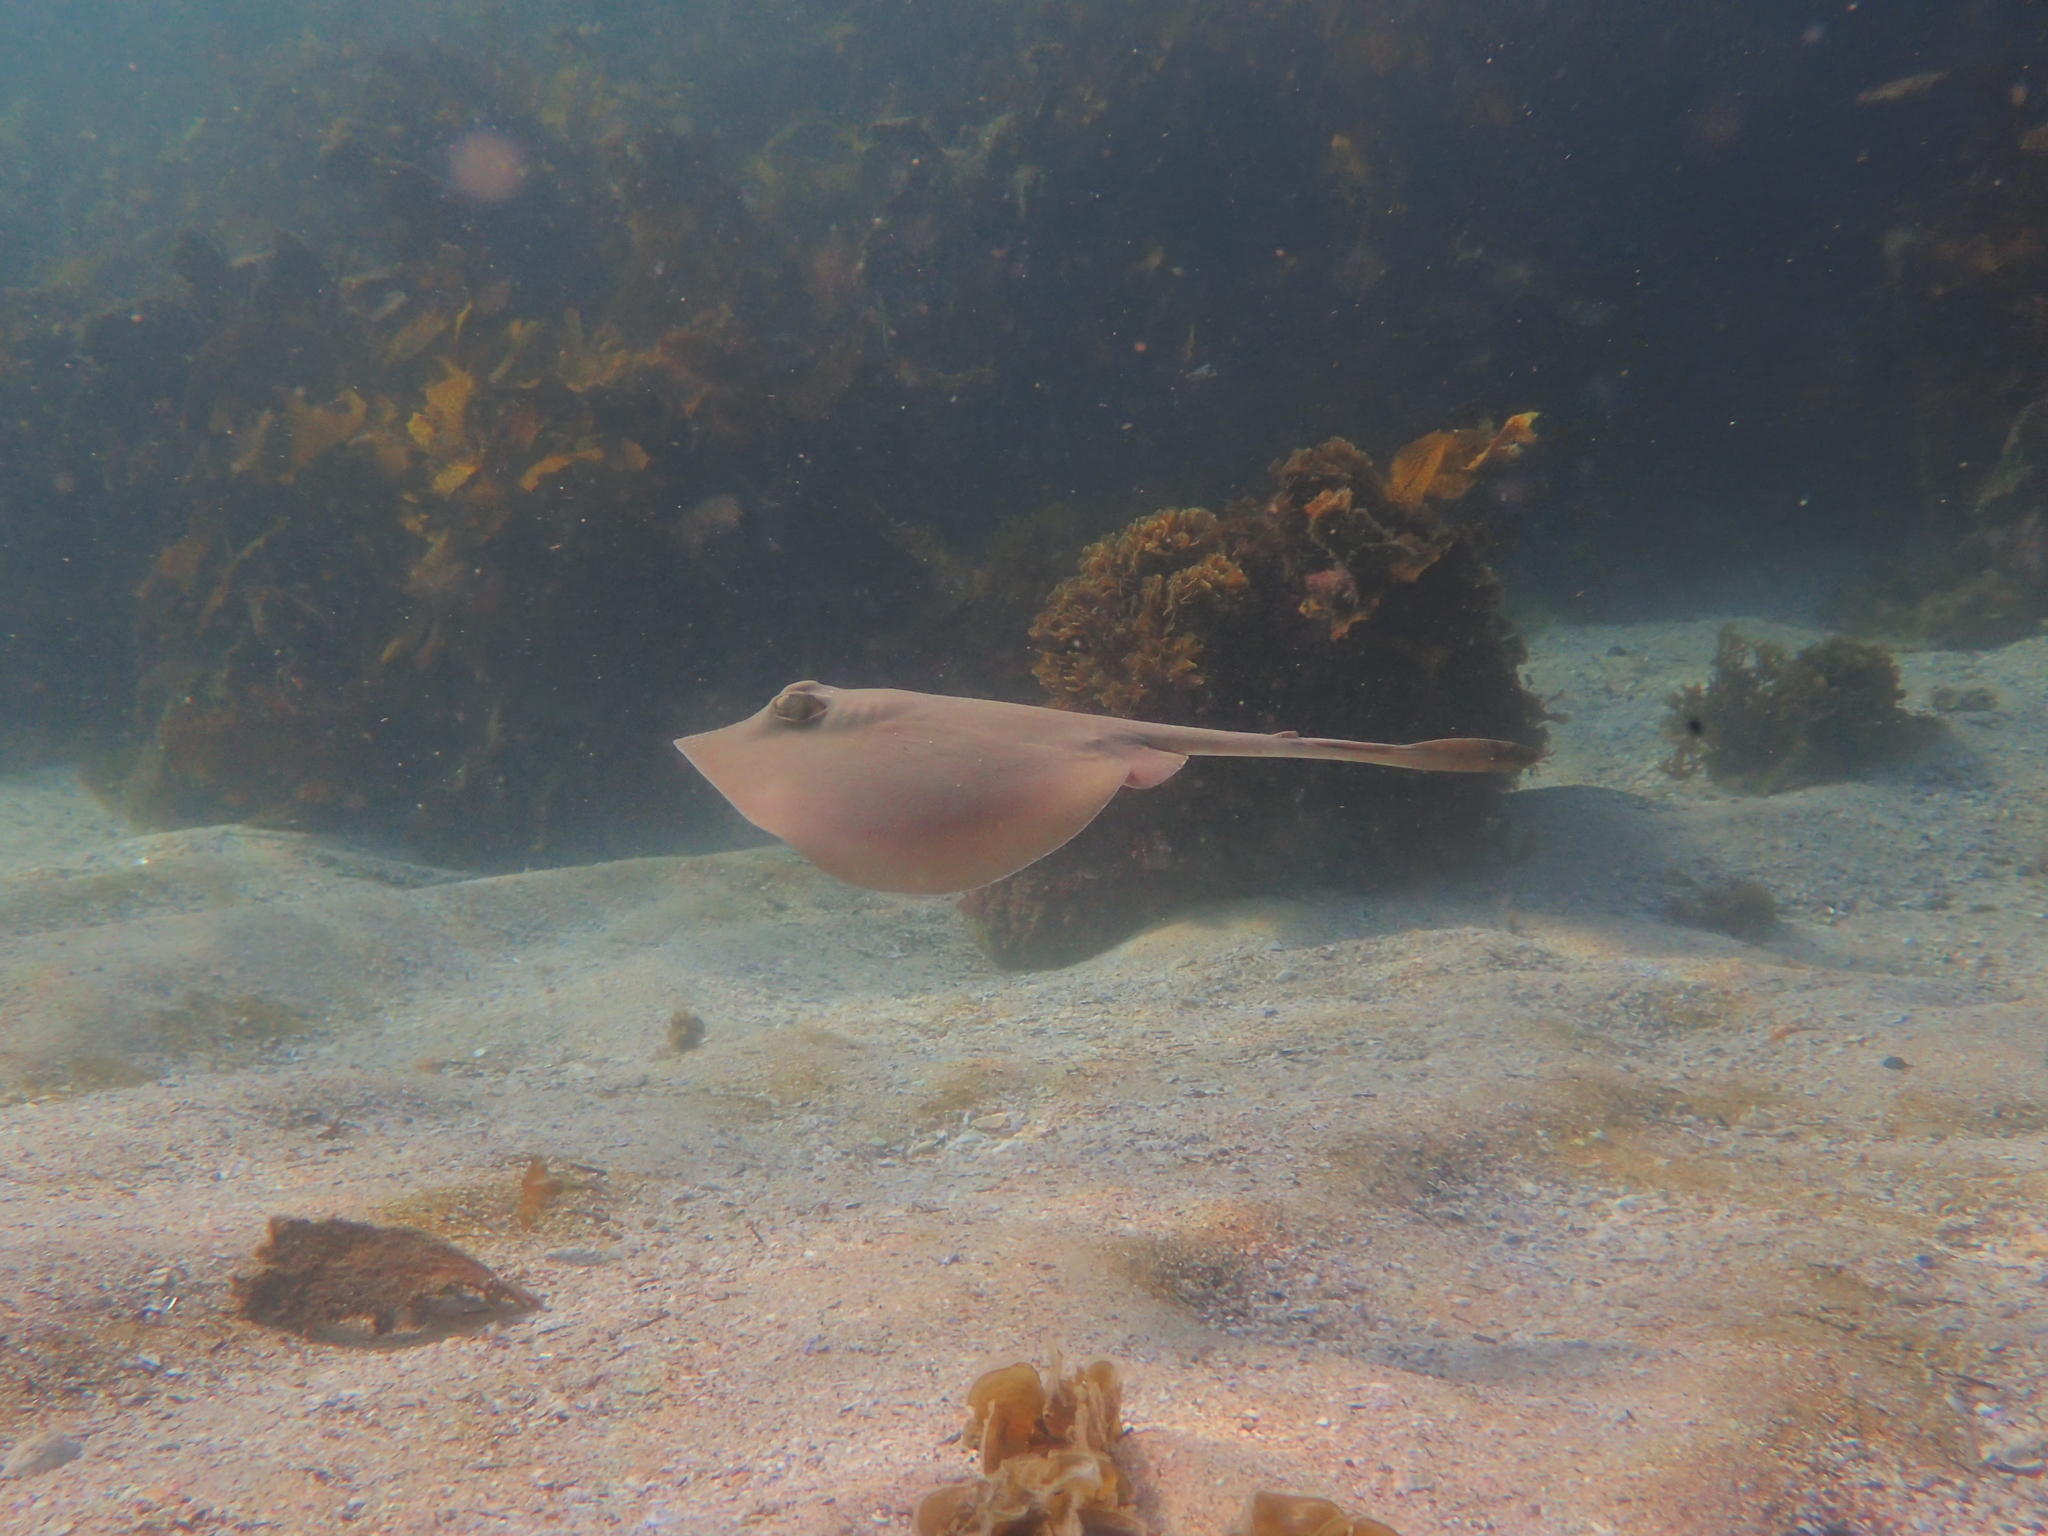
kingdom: Animalia
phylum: Chordata
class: Elasmobranchii
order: Myliobatiformes
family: Urolophidae
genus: Trygonoptera
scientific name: Trygonoptera testacea
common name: Common stingaree
